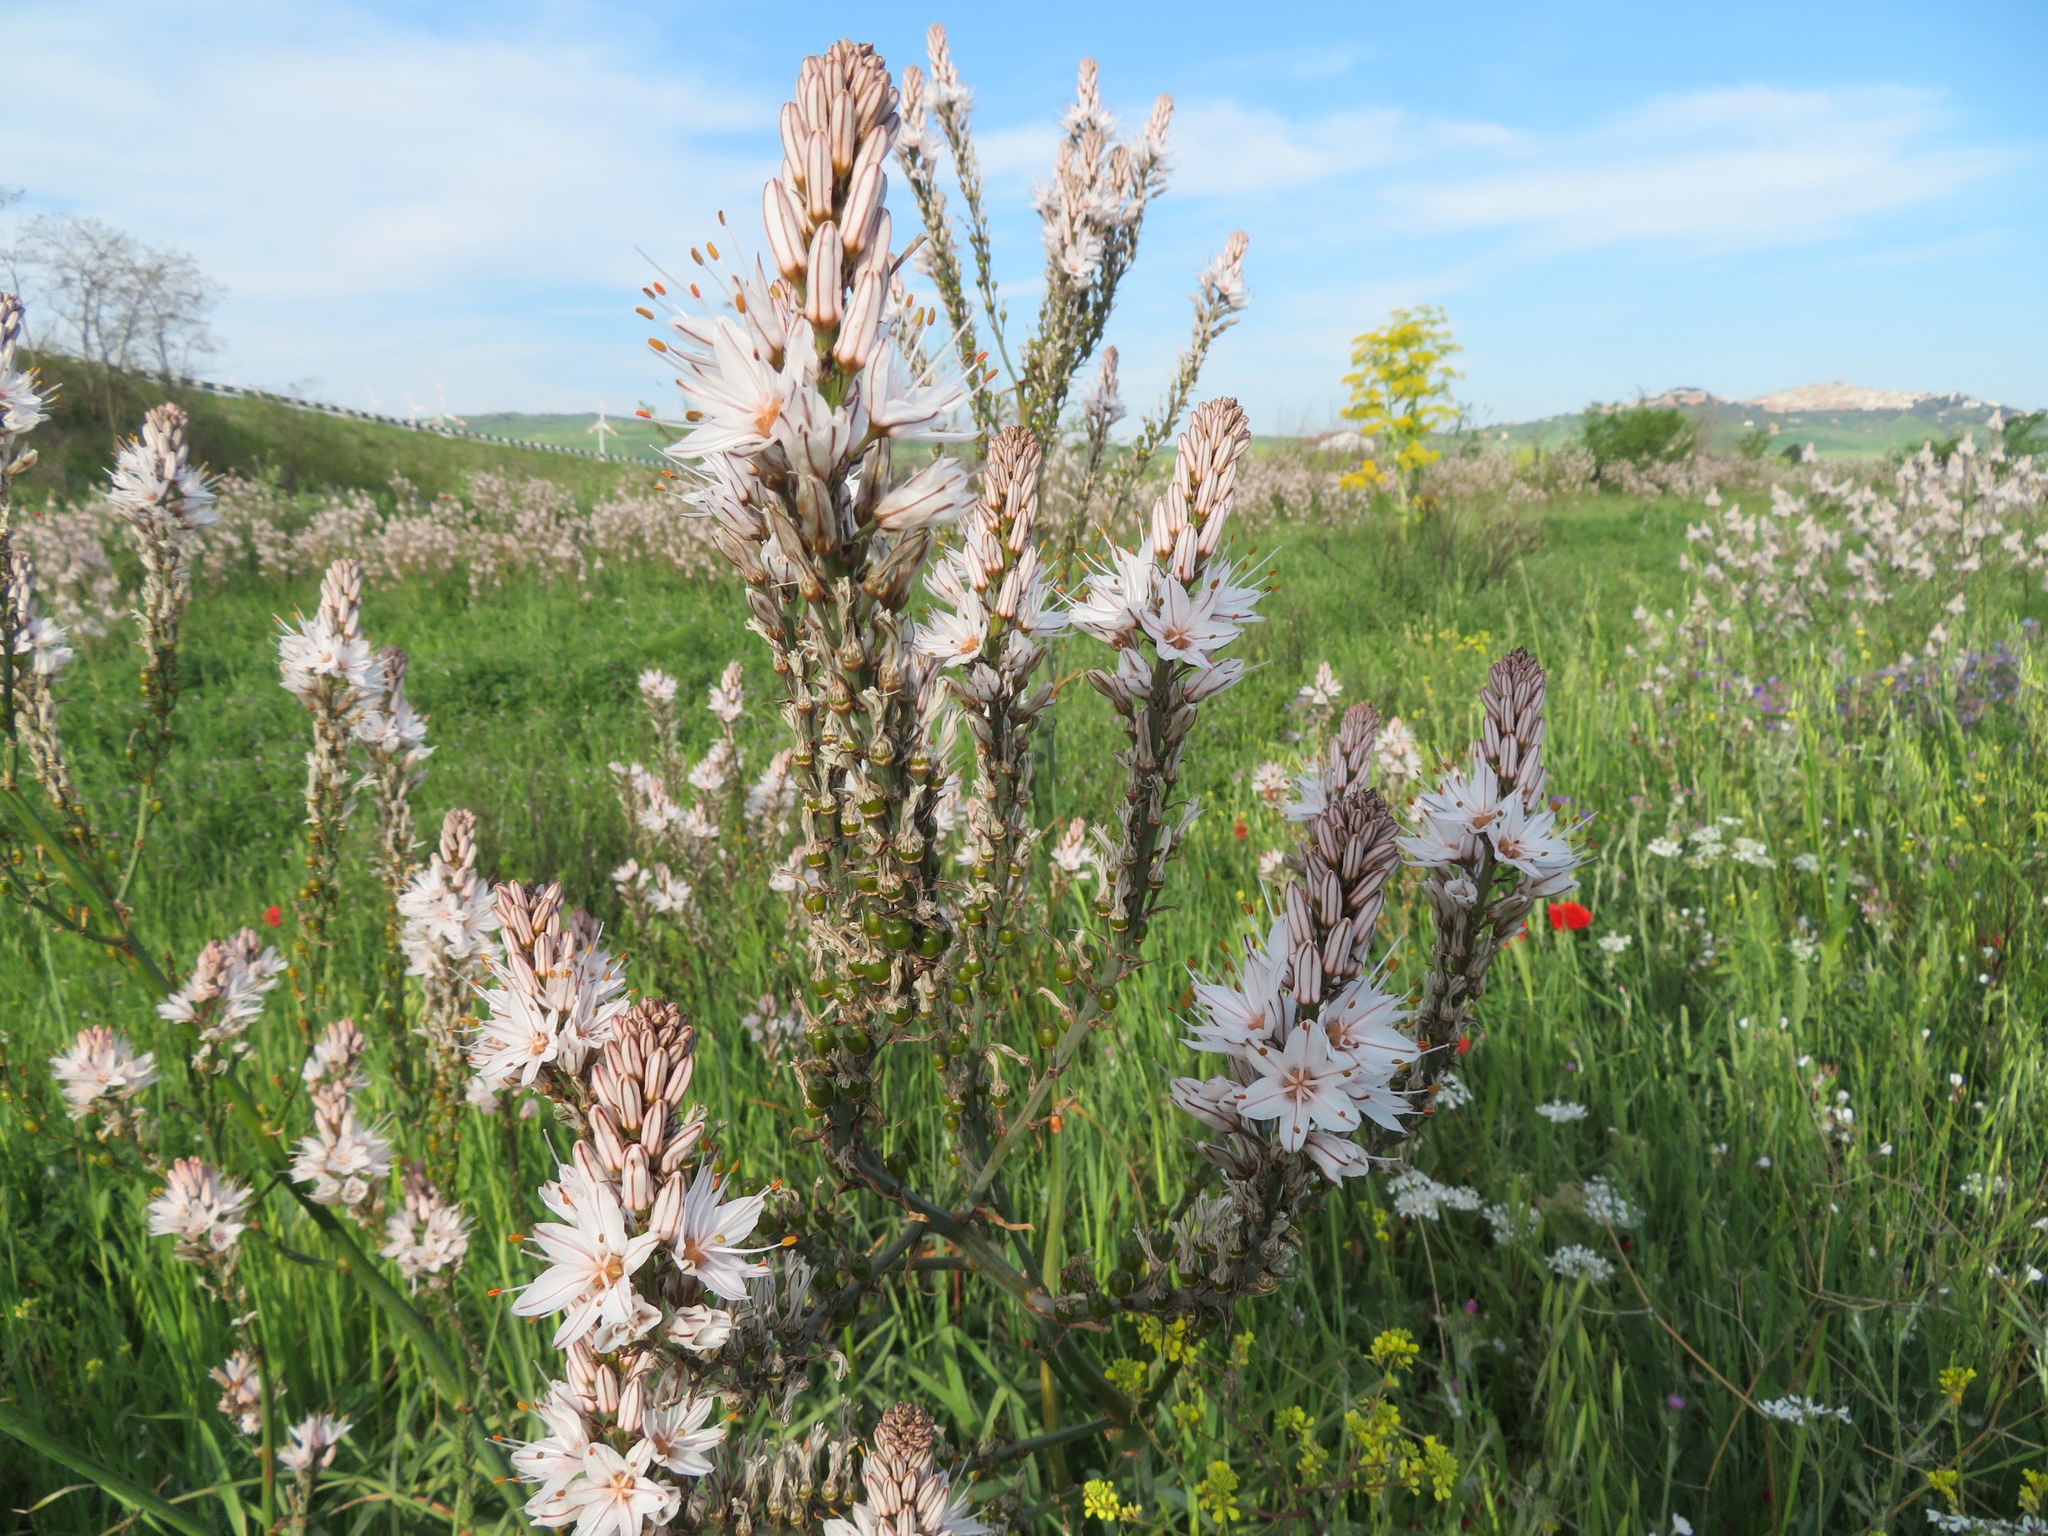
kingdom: Plantae
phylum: Tracheophyta
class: Liliopsida
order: Asparagales
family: Asphodelaceae
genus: Asphodelus
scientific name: Asphodelus ramosus
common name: Silverrod
